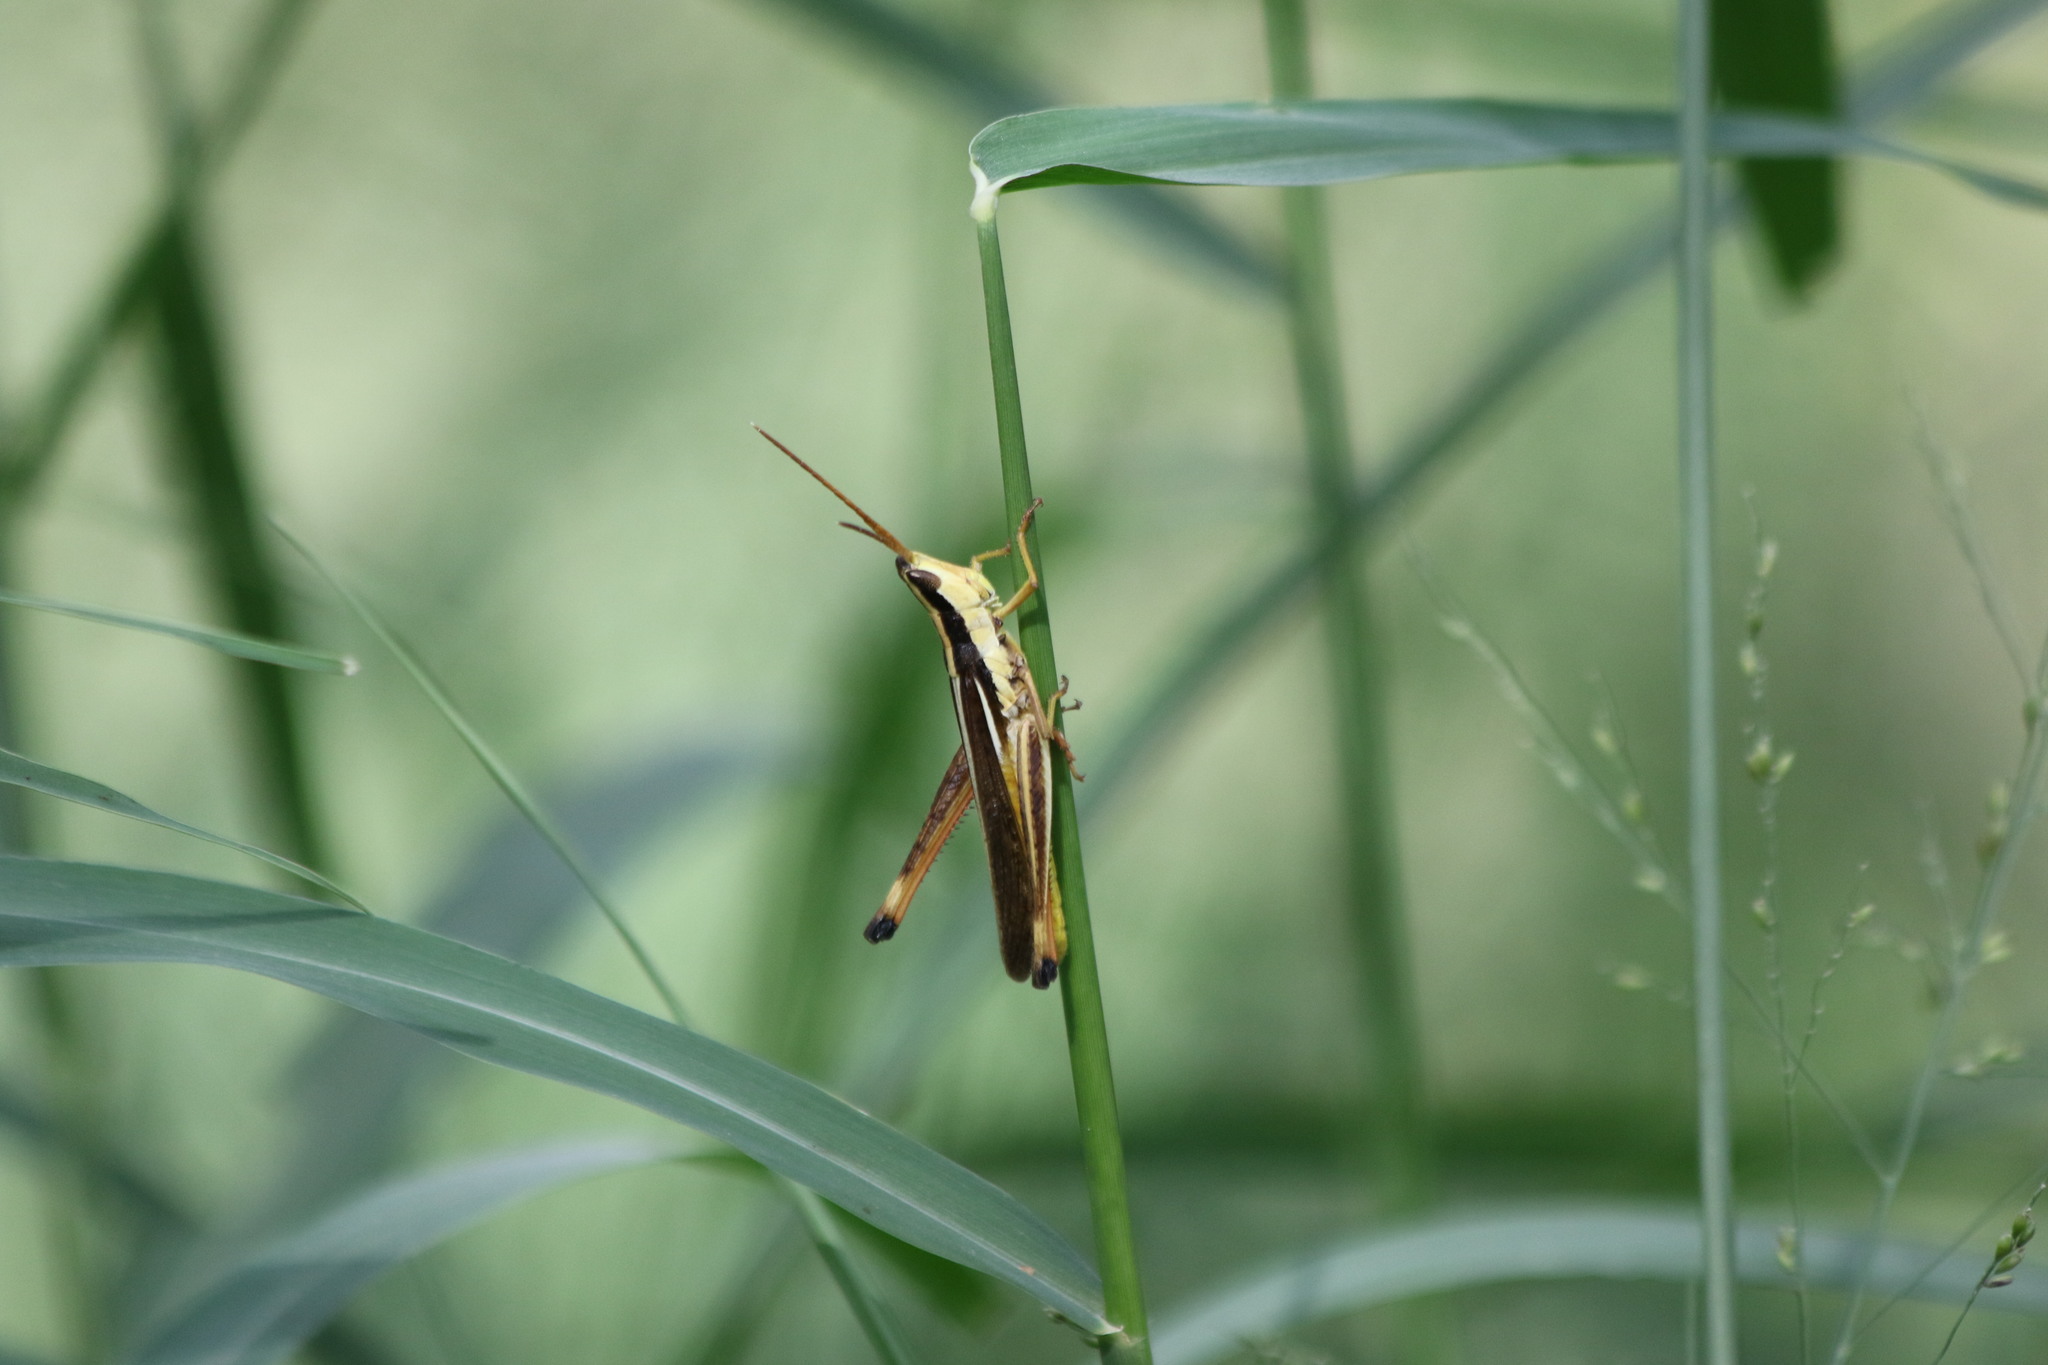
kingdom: Animalia
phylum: Arthropoda
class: Insecta
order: Orthoptera
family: Acrididae
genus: Mermiria
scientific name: Mermiria bivittata
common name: Two-striped mermiria grasshopper
